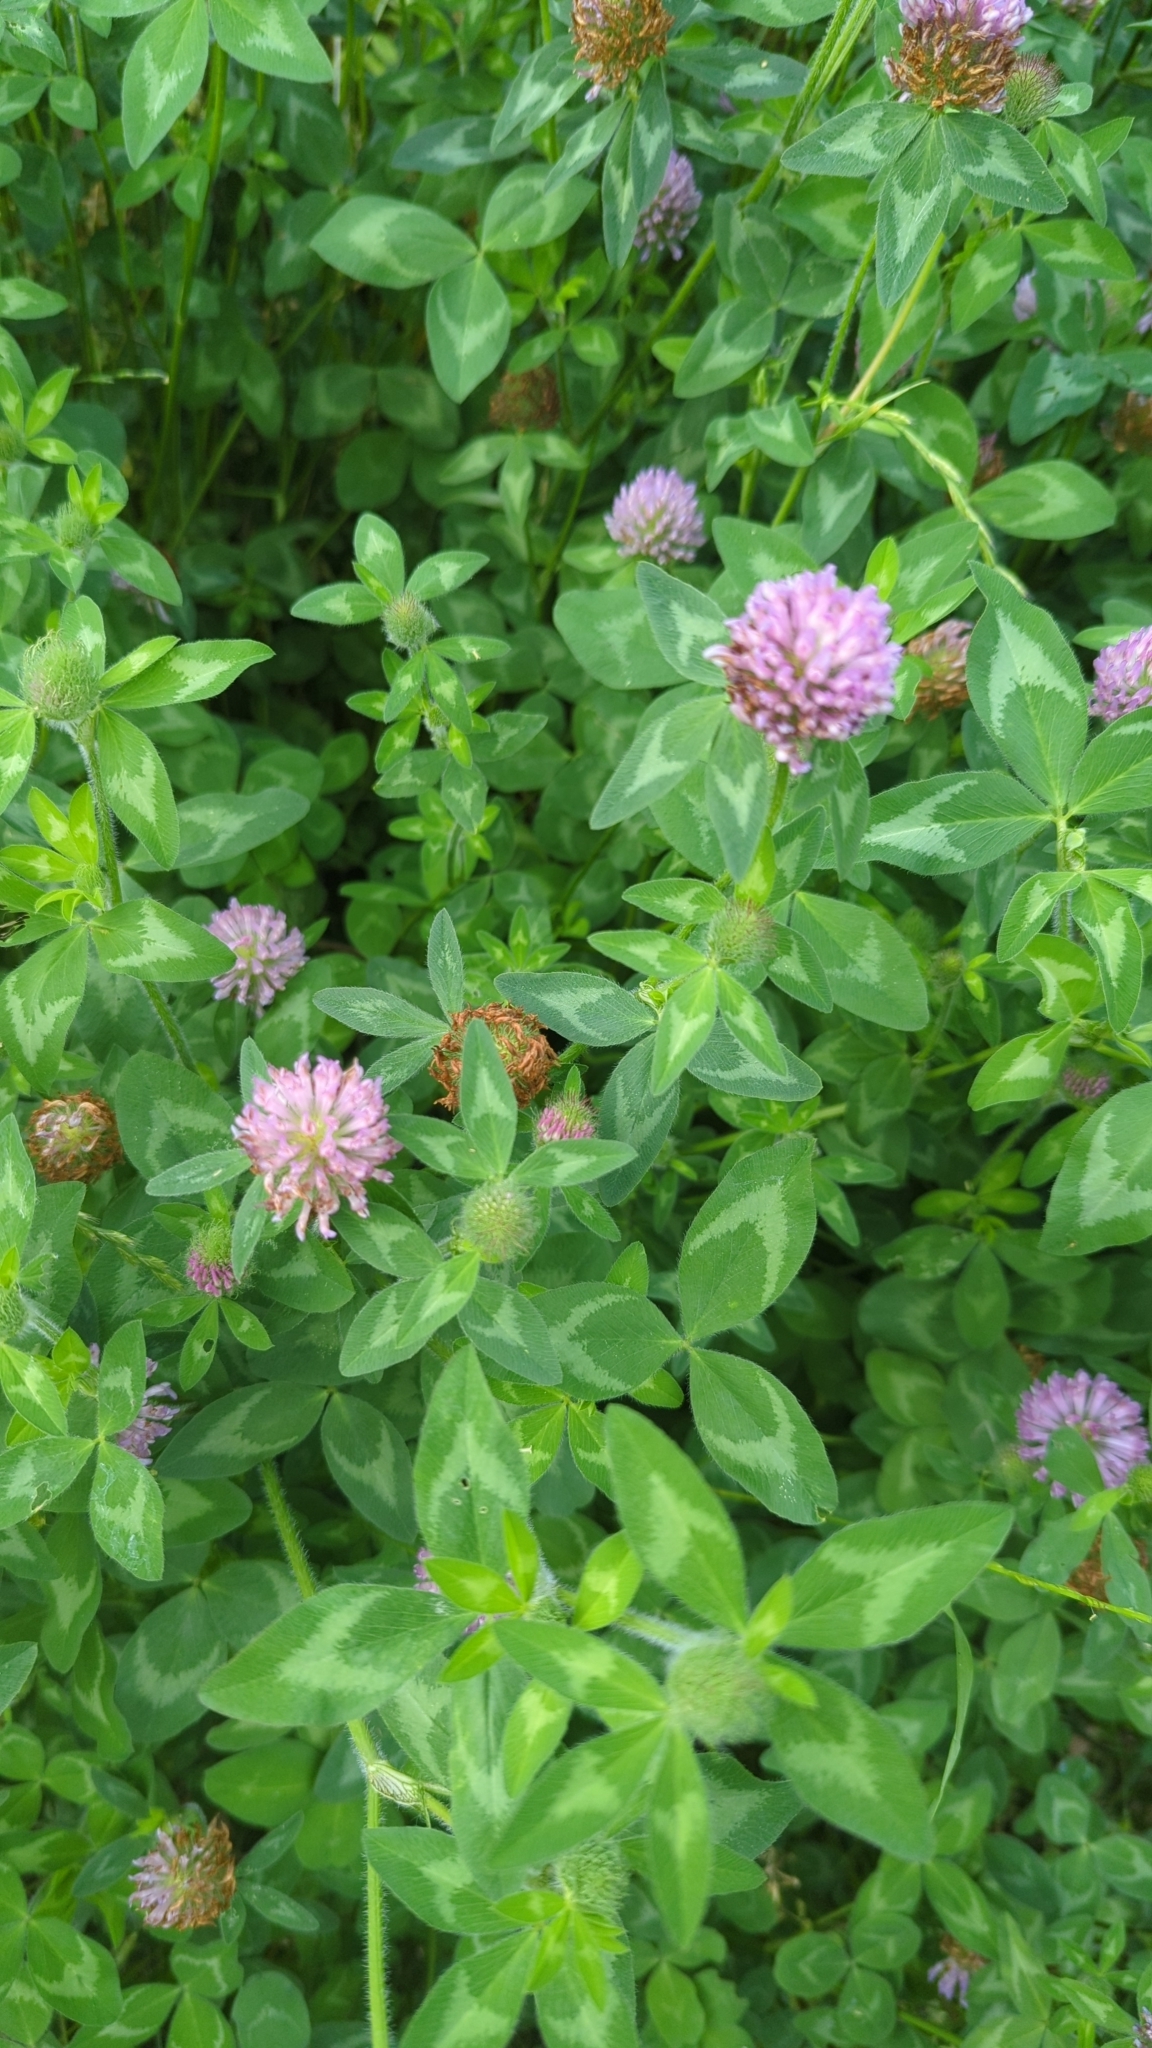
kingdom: Plantae
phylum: Tracheophyta
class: Magnoliopsida
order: Fabales
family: Fabaceae
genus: Trifolium
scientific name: Trifolium pratense
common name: Red clover
